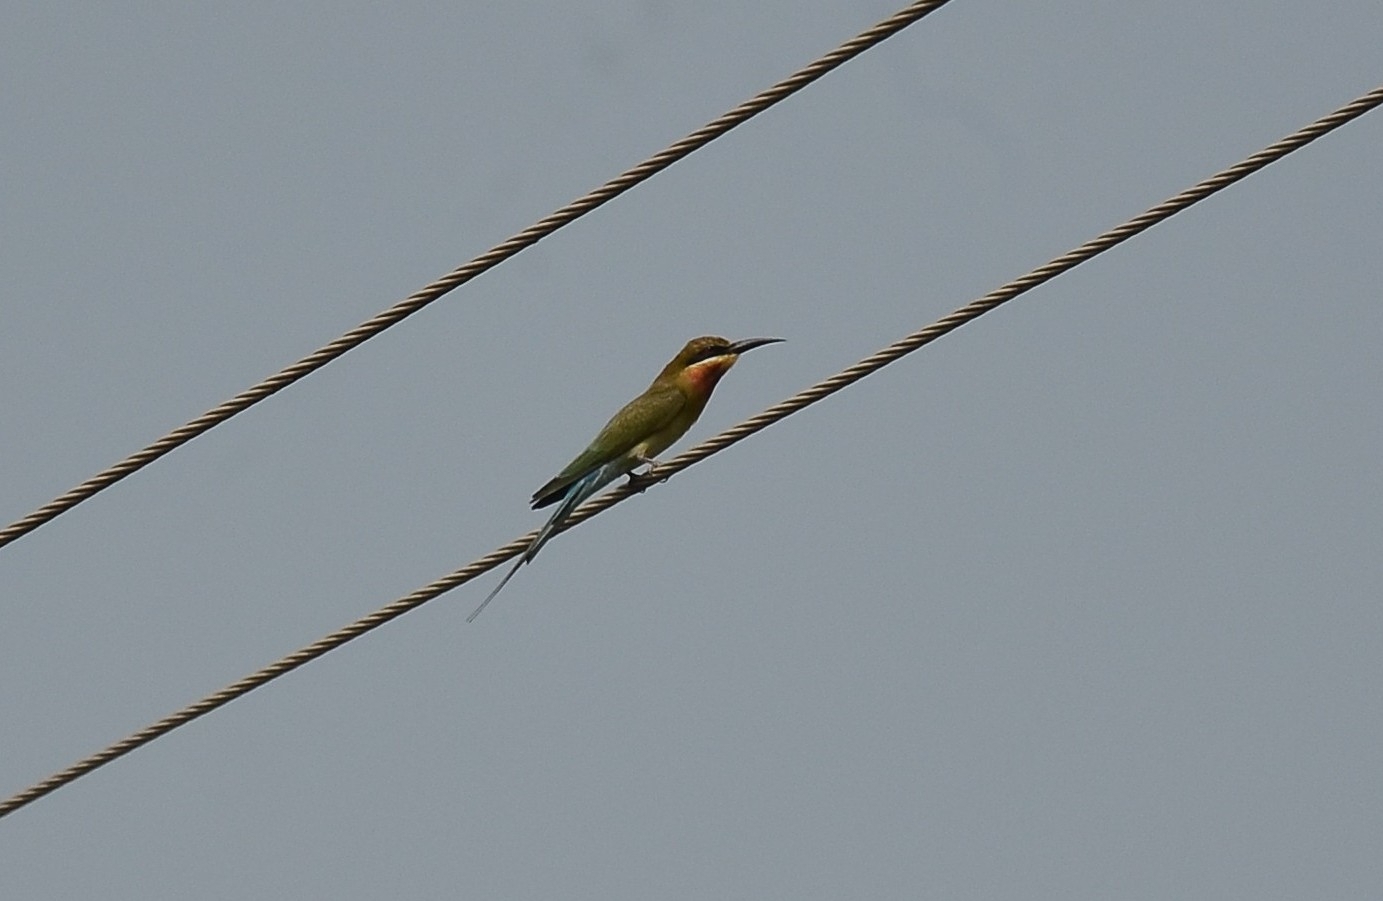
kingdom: Animalia
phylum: Chordata
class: Aves
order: Coraciiformes
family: Meropidae
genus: Merops
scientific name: Merops philippinus
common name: Blue-tailed bee-eater
